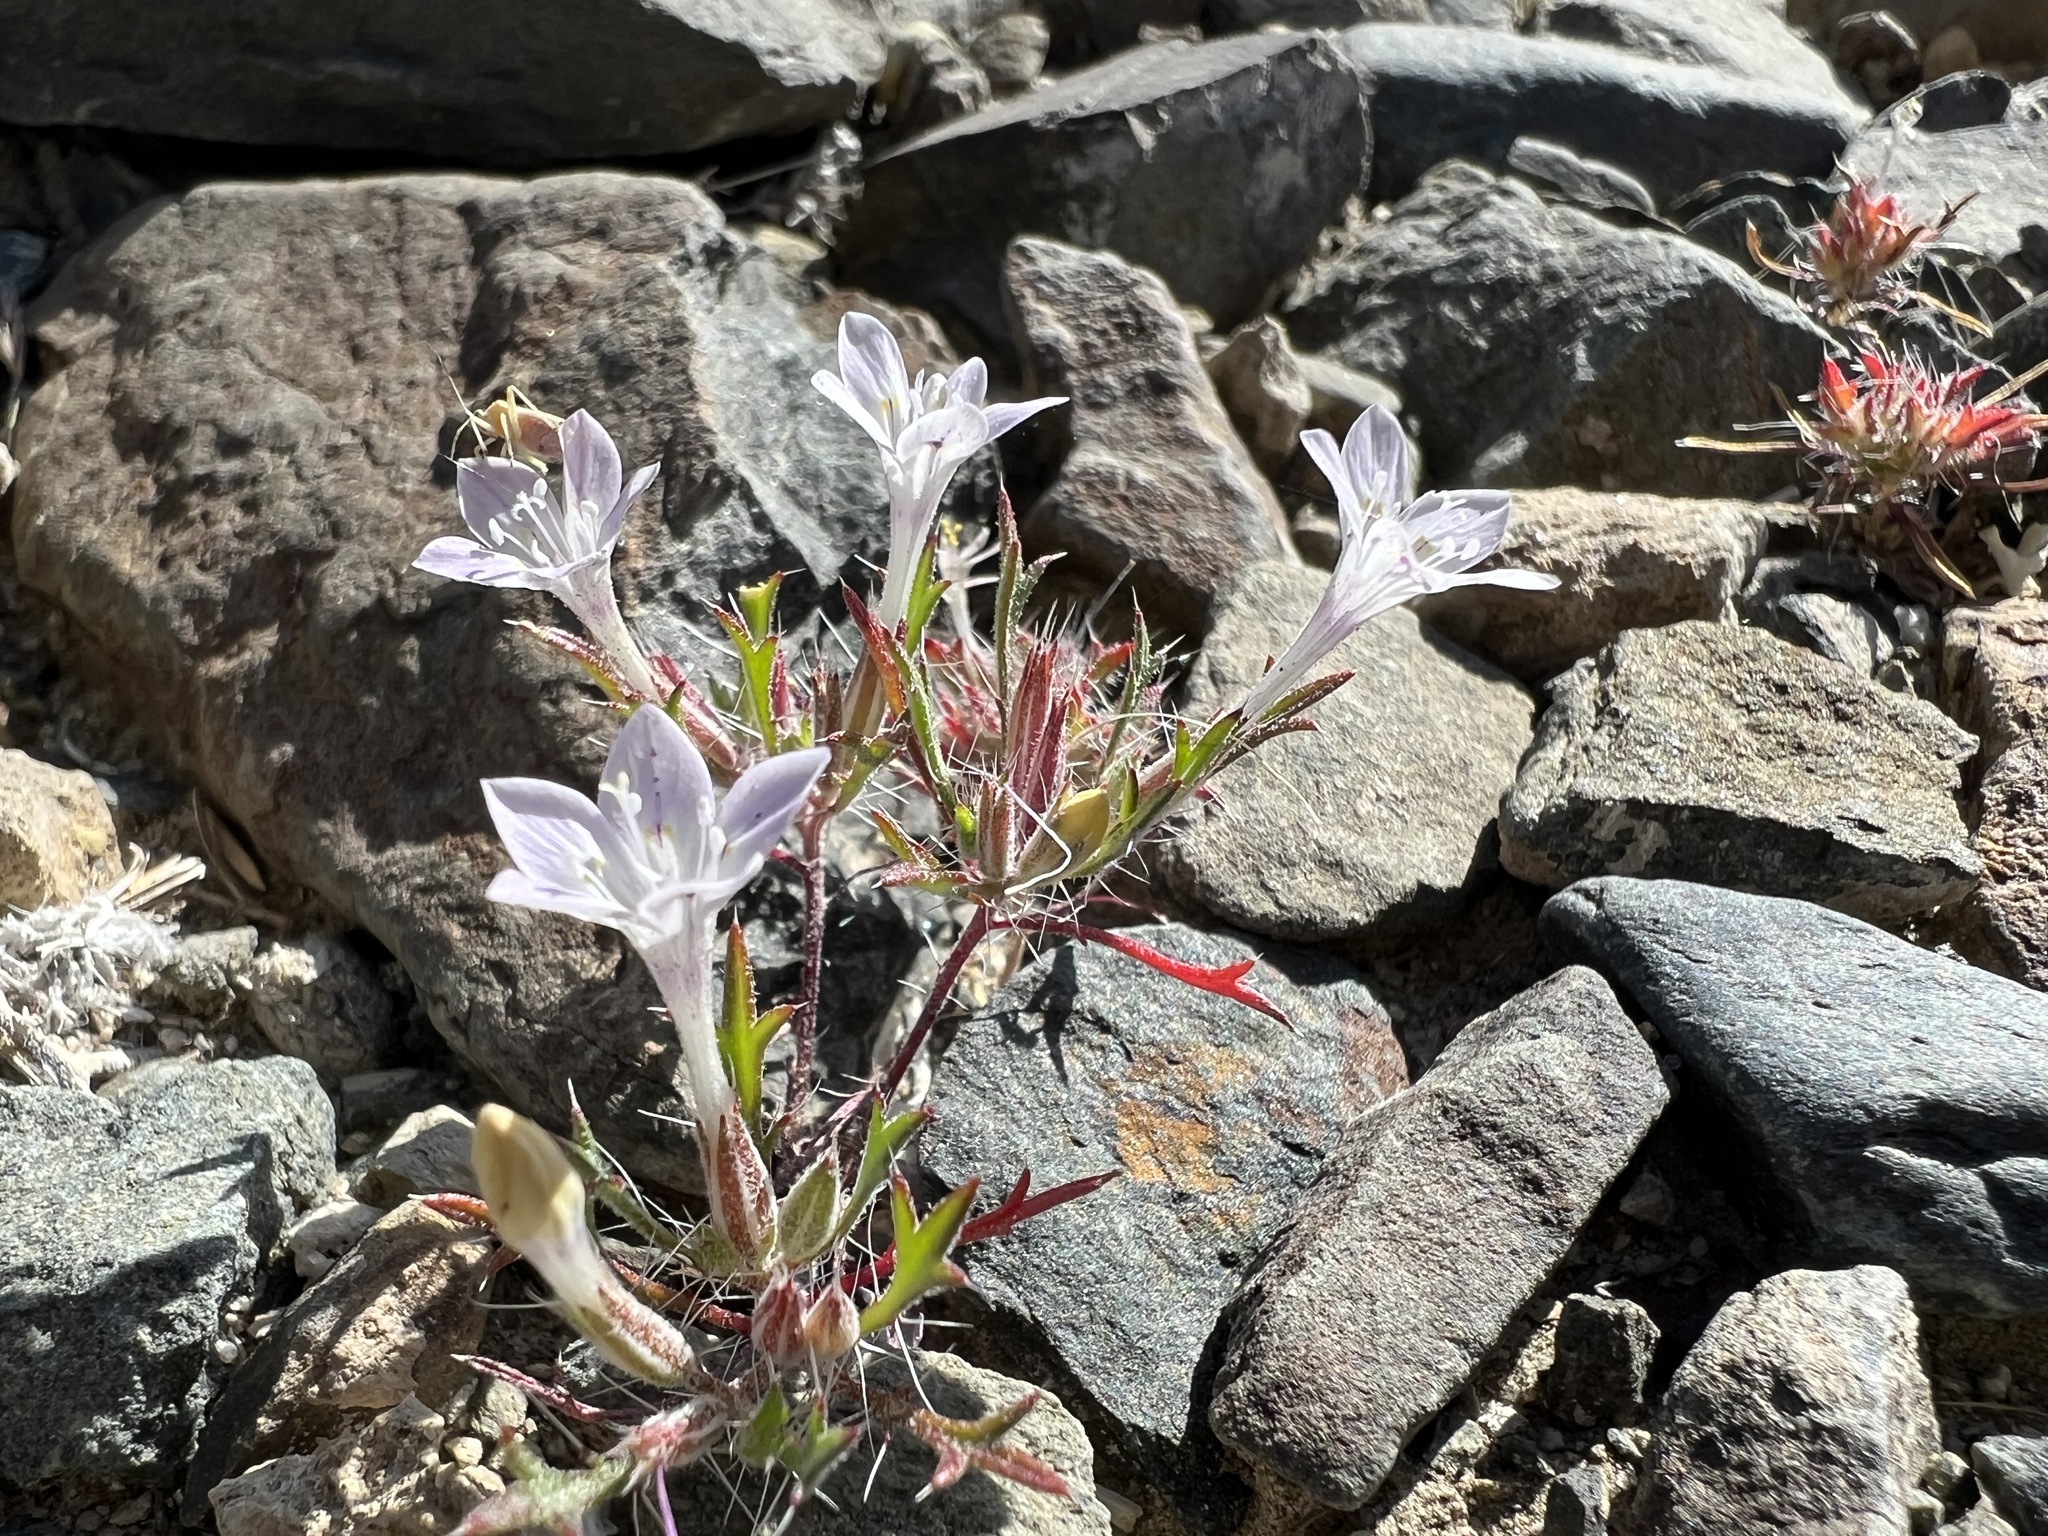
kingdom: Plantae
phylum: Tracheophyta
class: Magnoliopsida
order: Ericales
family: Polemoniaceae
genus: Langloisia
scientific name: Langloisia setosissima
